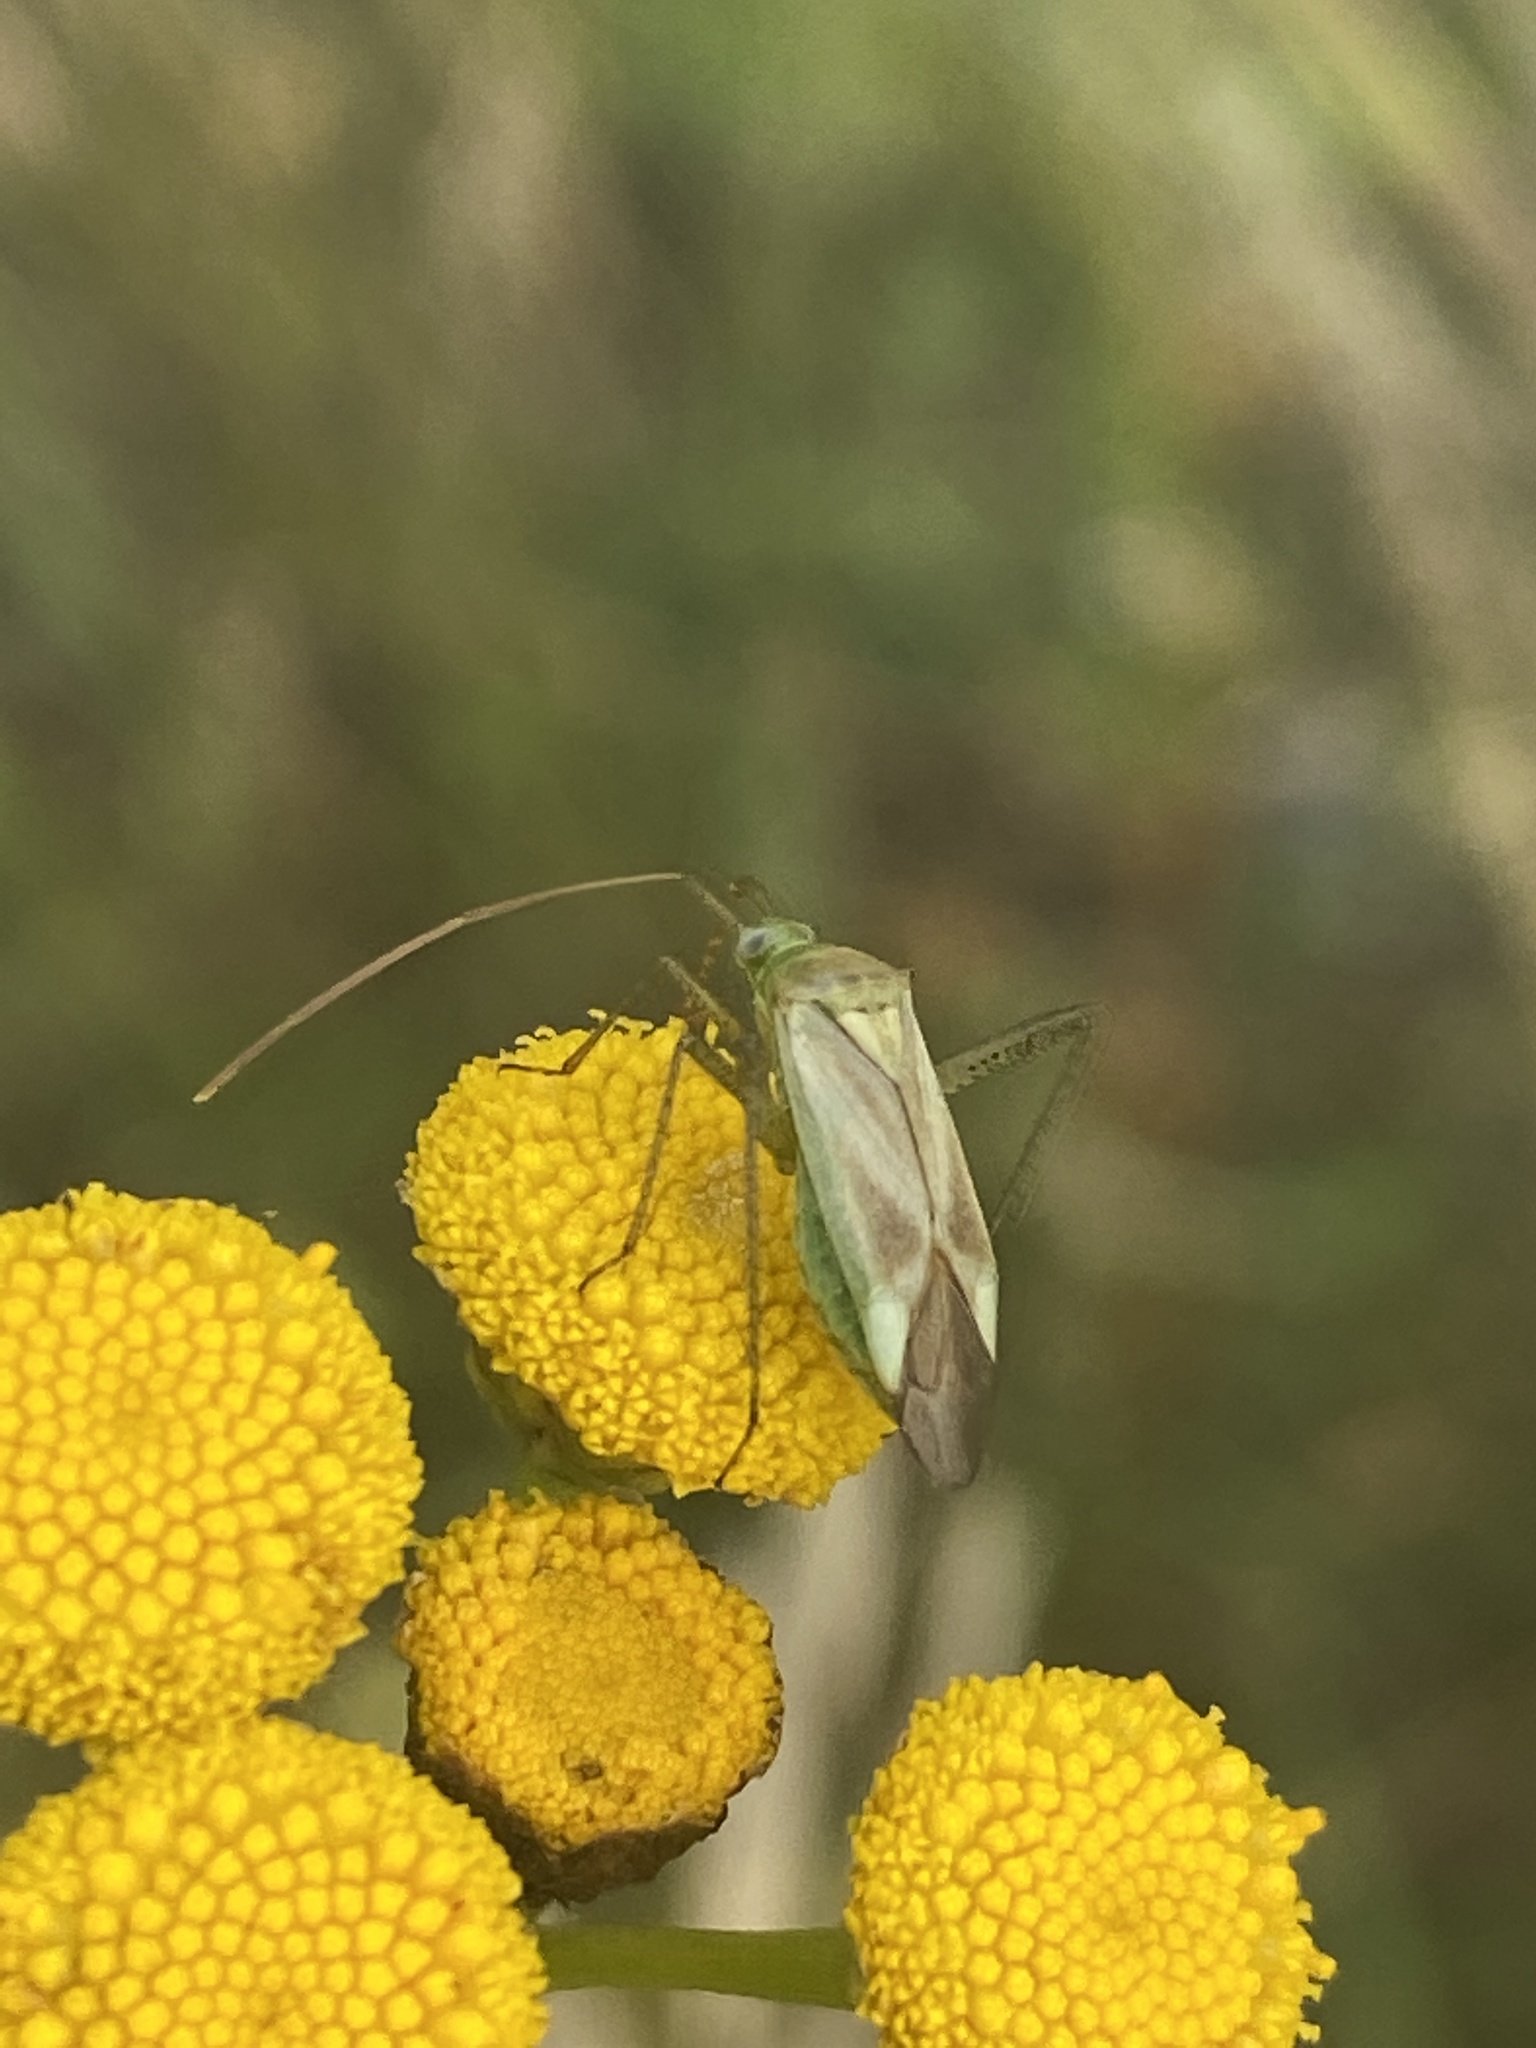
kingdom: Animalia
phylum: Arthropoda
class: Insecta
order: Hemiptera
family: Miridae
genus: Adelphocoris
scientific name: Adelphocoris lineolatus
